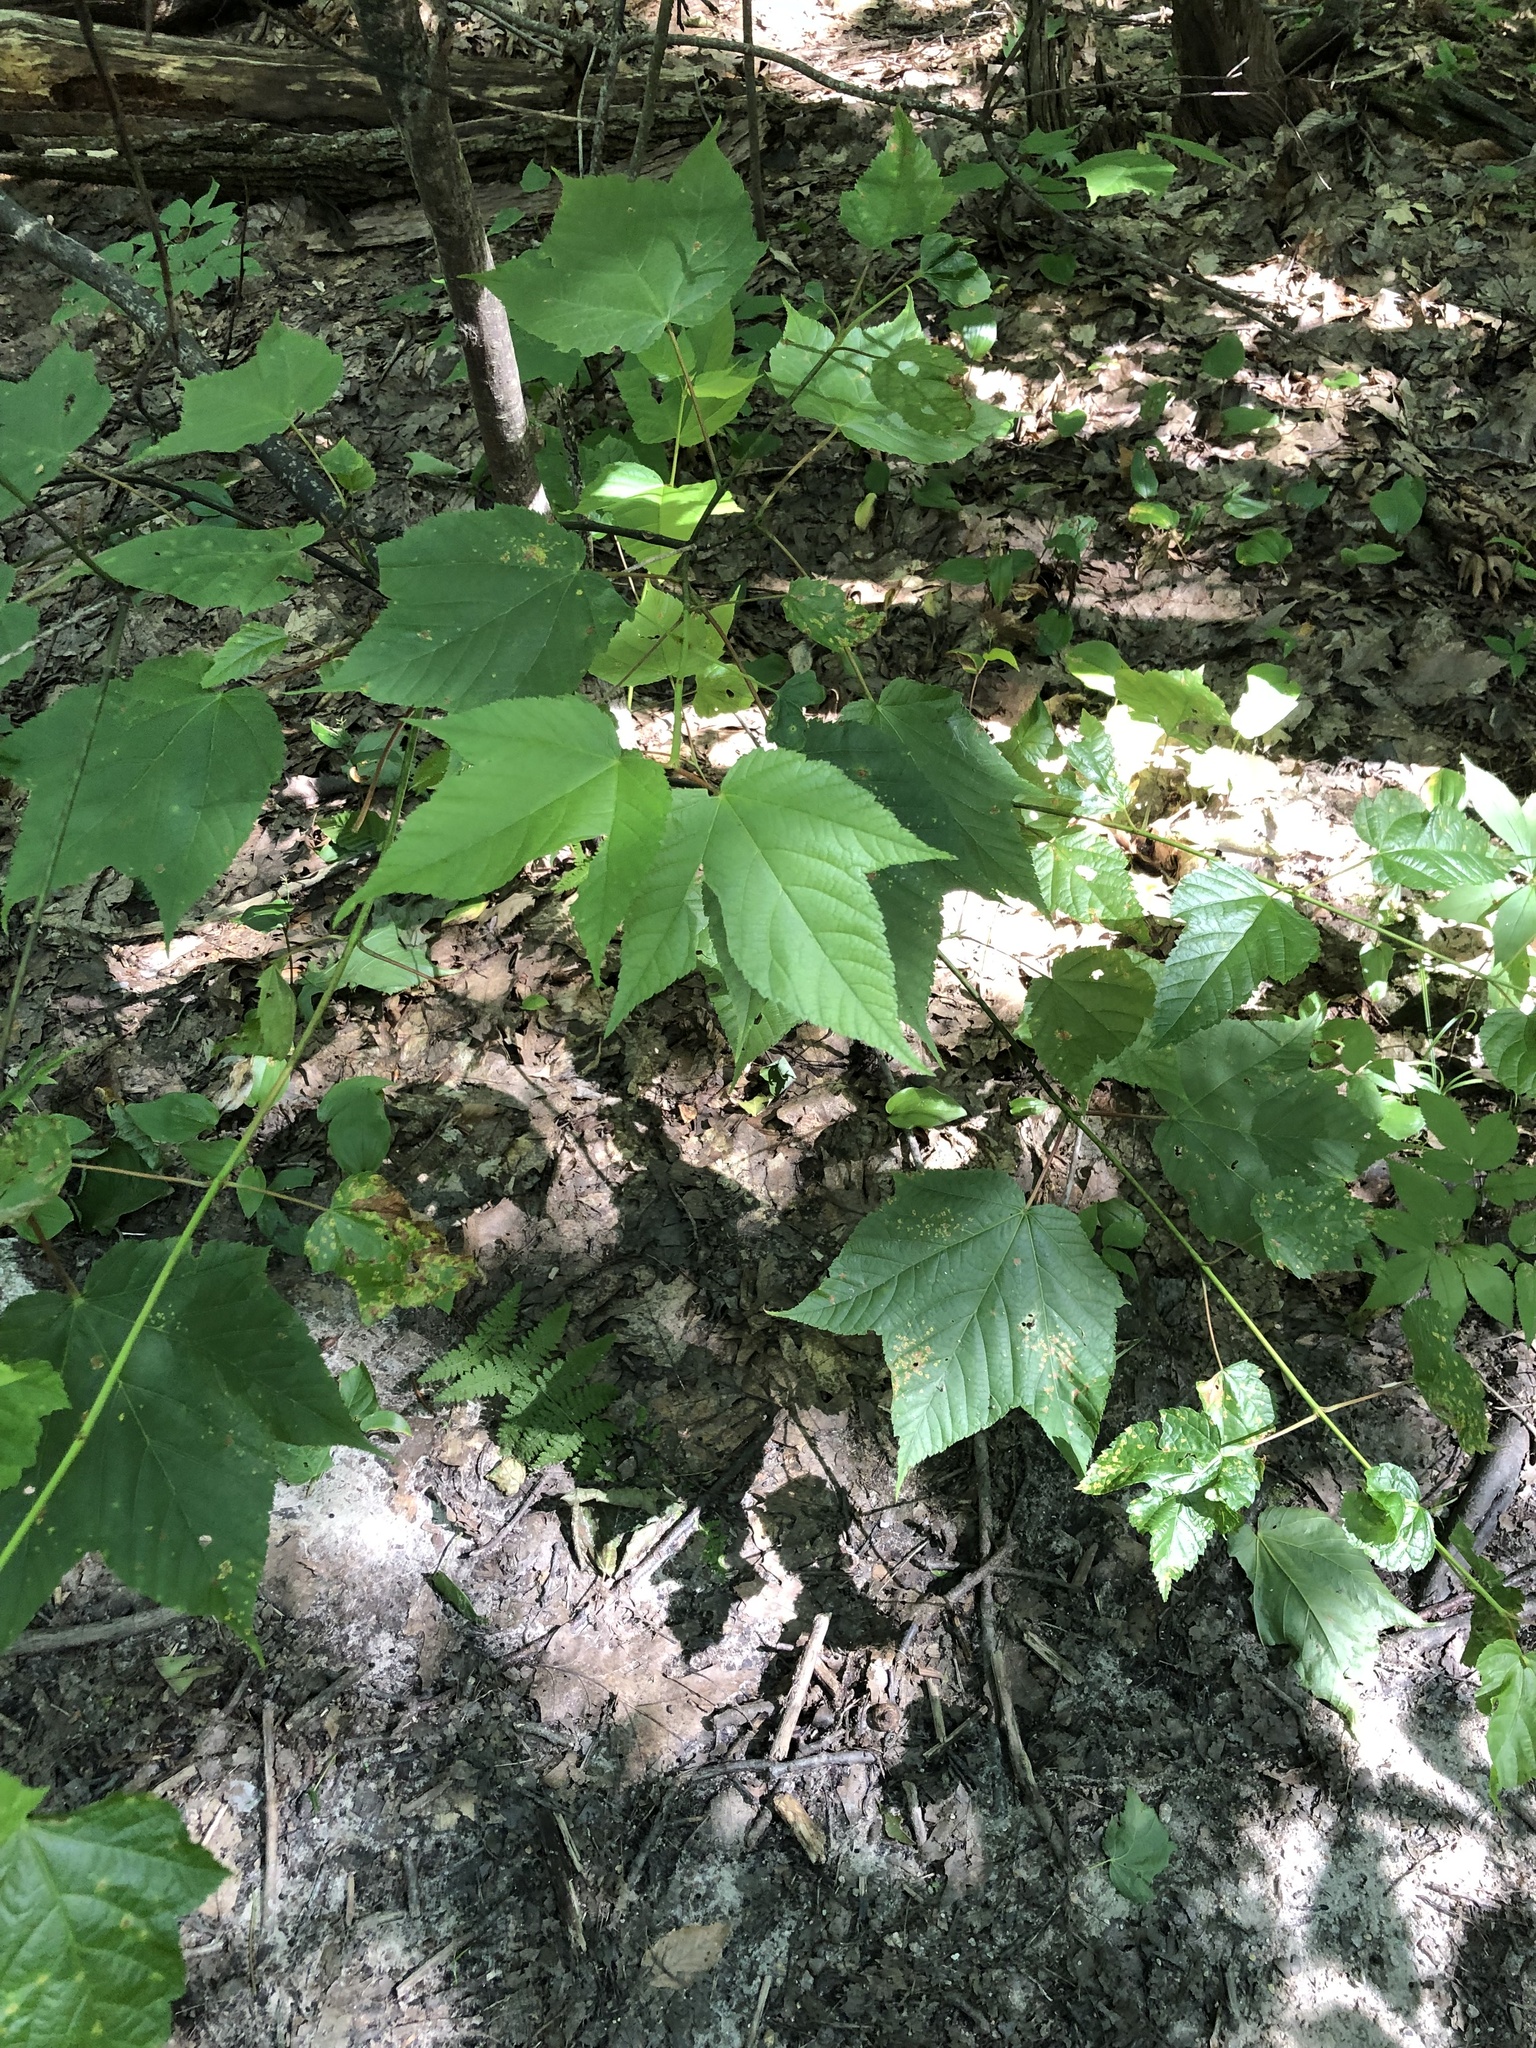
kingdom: Plantae
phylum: Tracheophyta
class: Magnoliopsida
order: Sapindales
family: Sapindaceae
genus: Acer
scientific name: Acer pensylvanicum
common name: Moosewood
